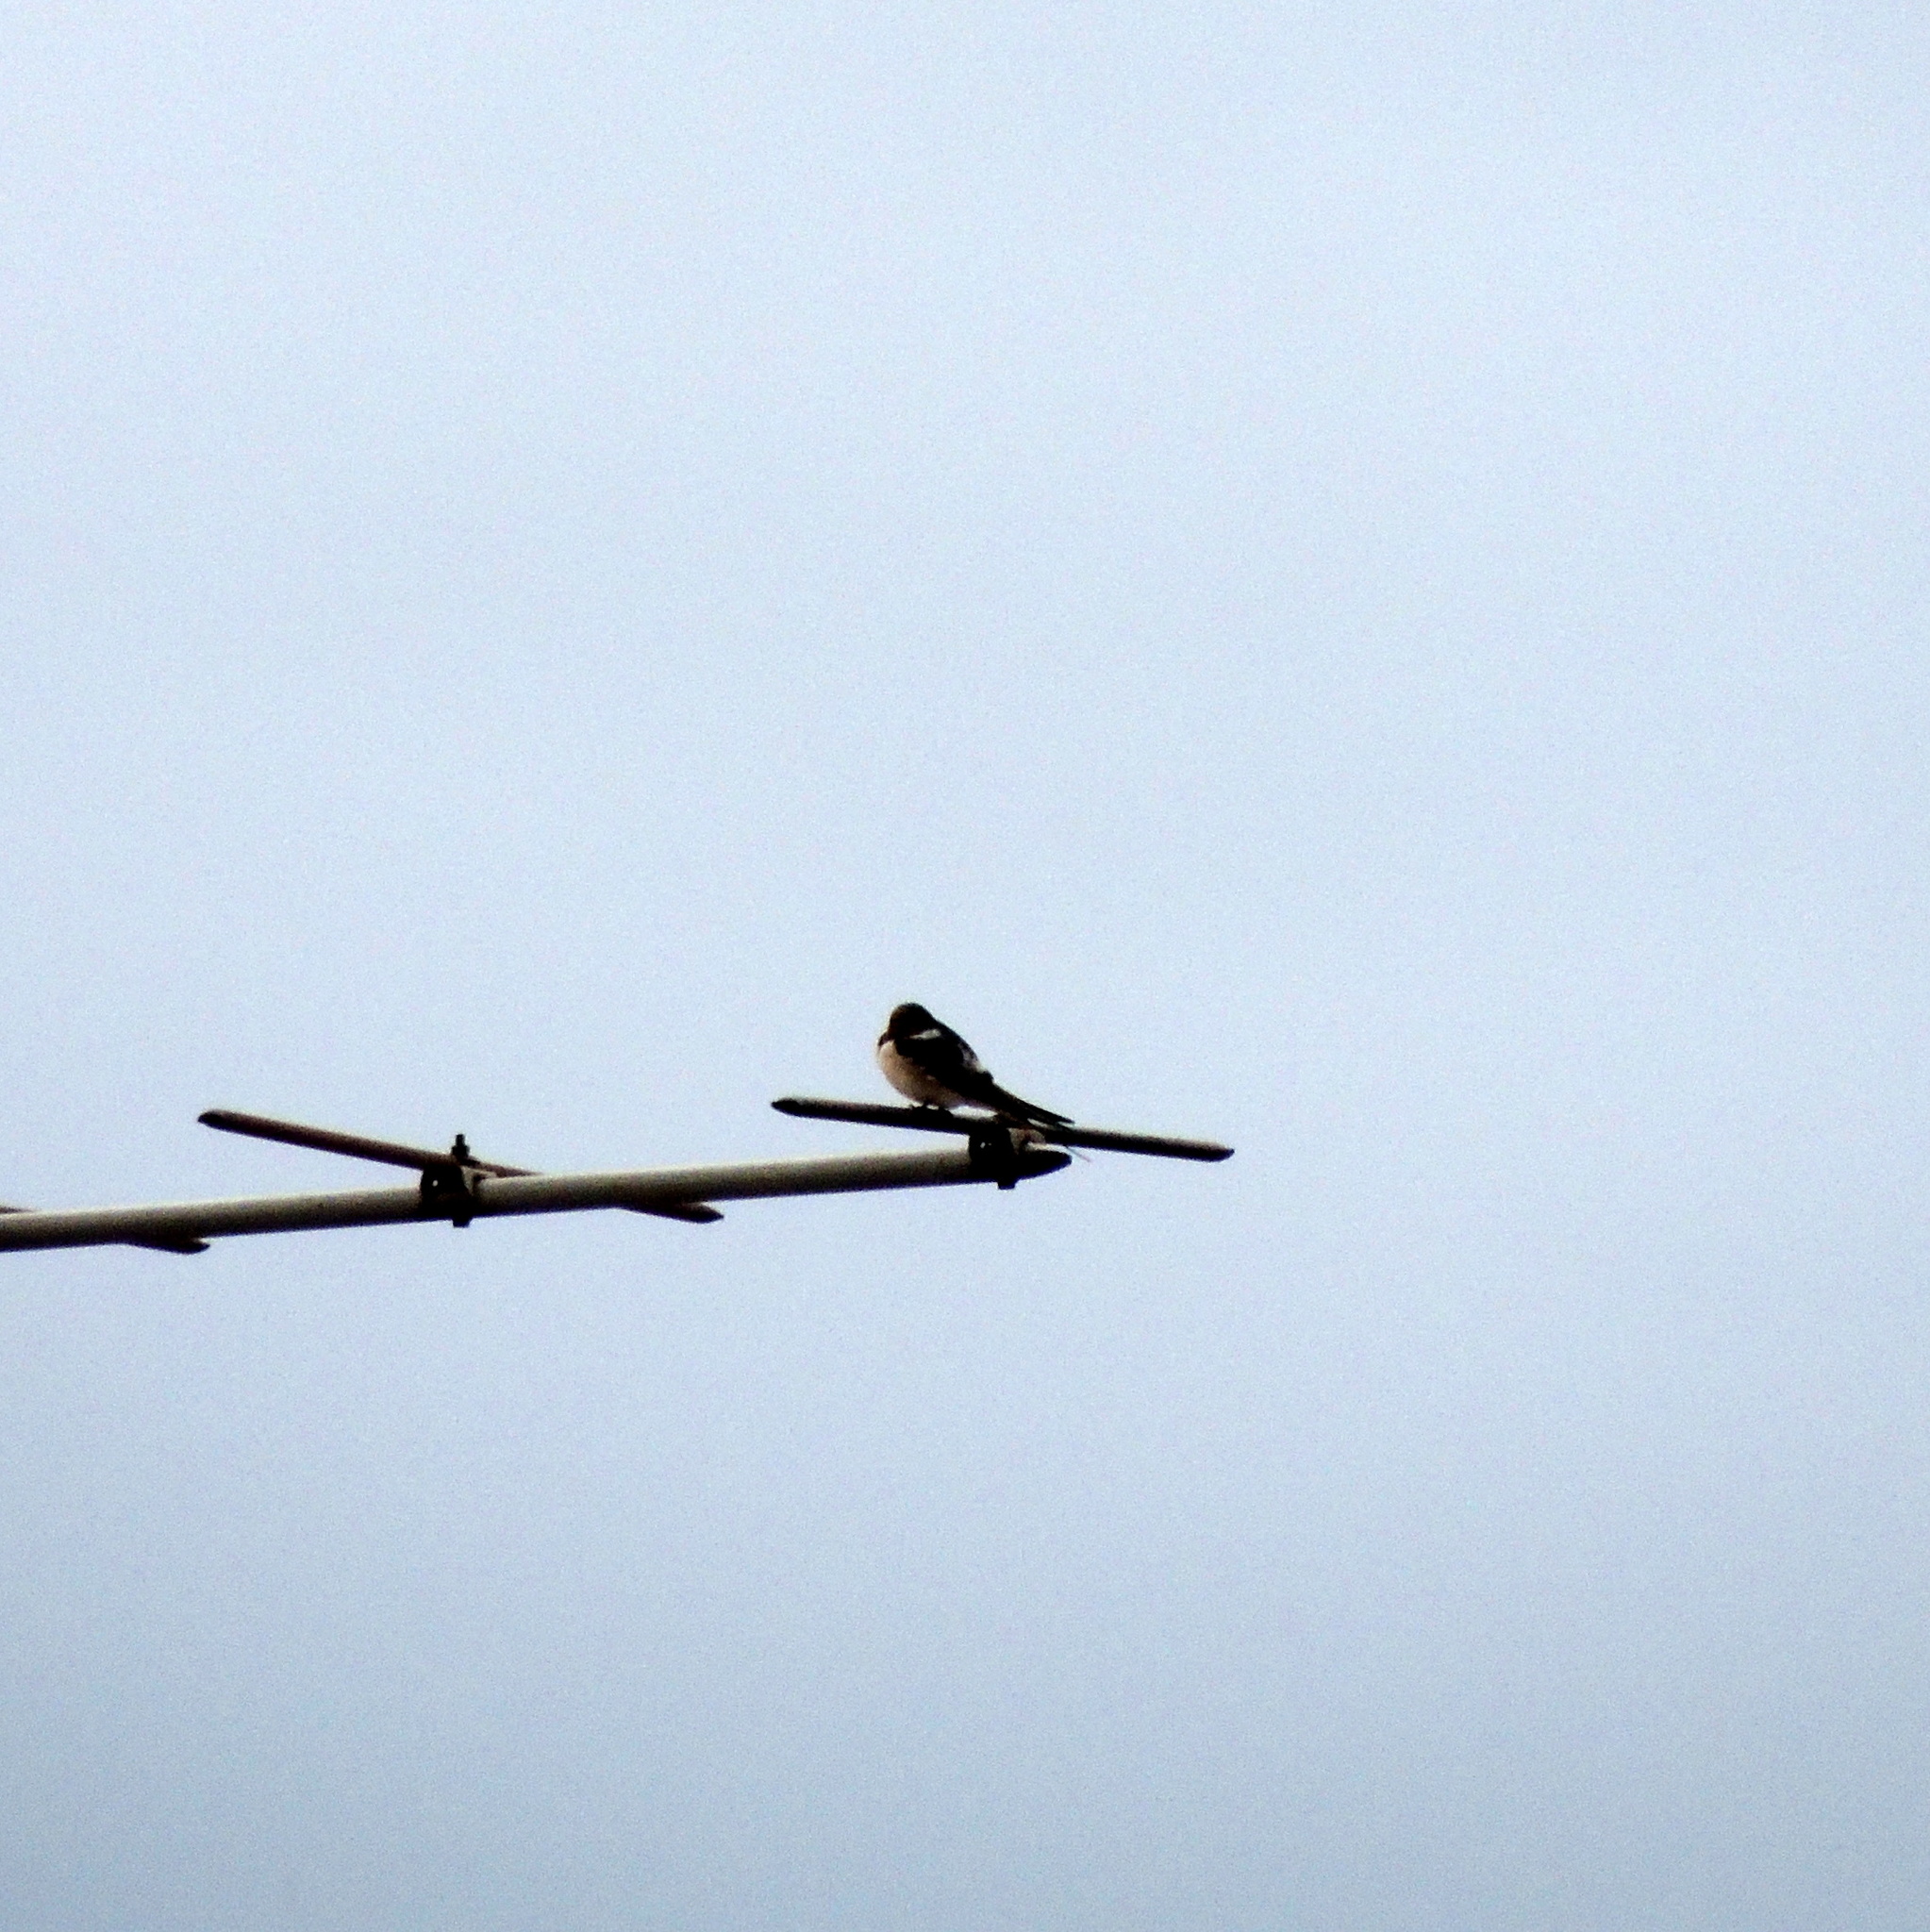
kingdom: Animalia
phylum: Chordata
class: Aves
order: Passeriformes
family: Hirundinidae
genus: Hirundo
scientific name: Hirundo rustica
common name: Barn swallow
